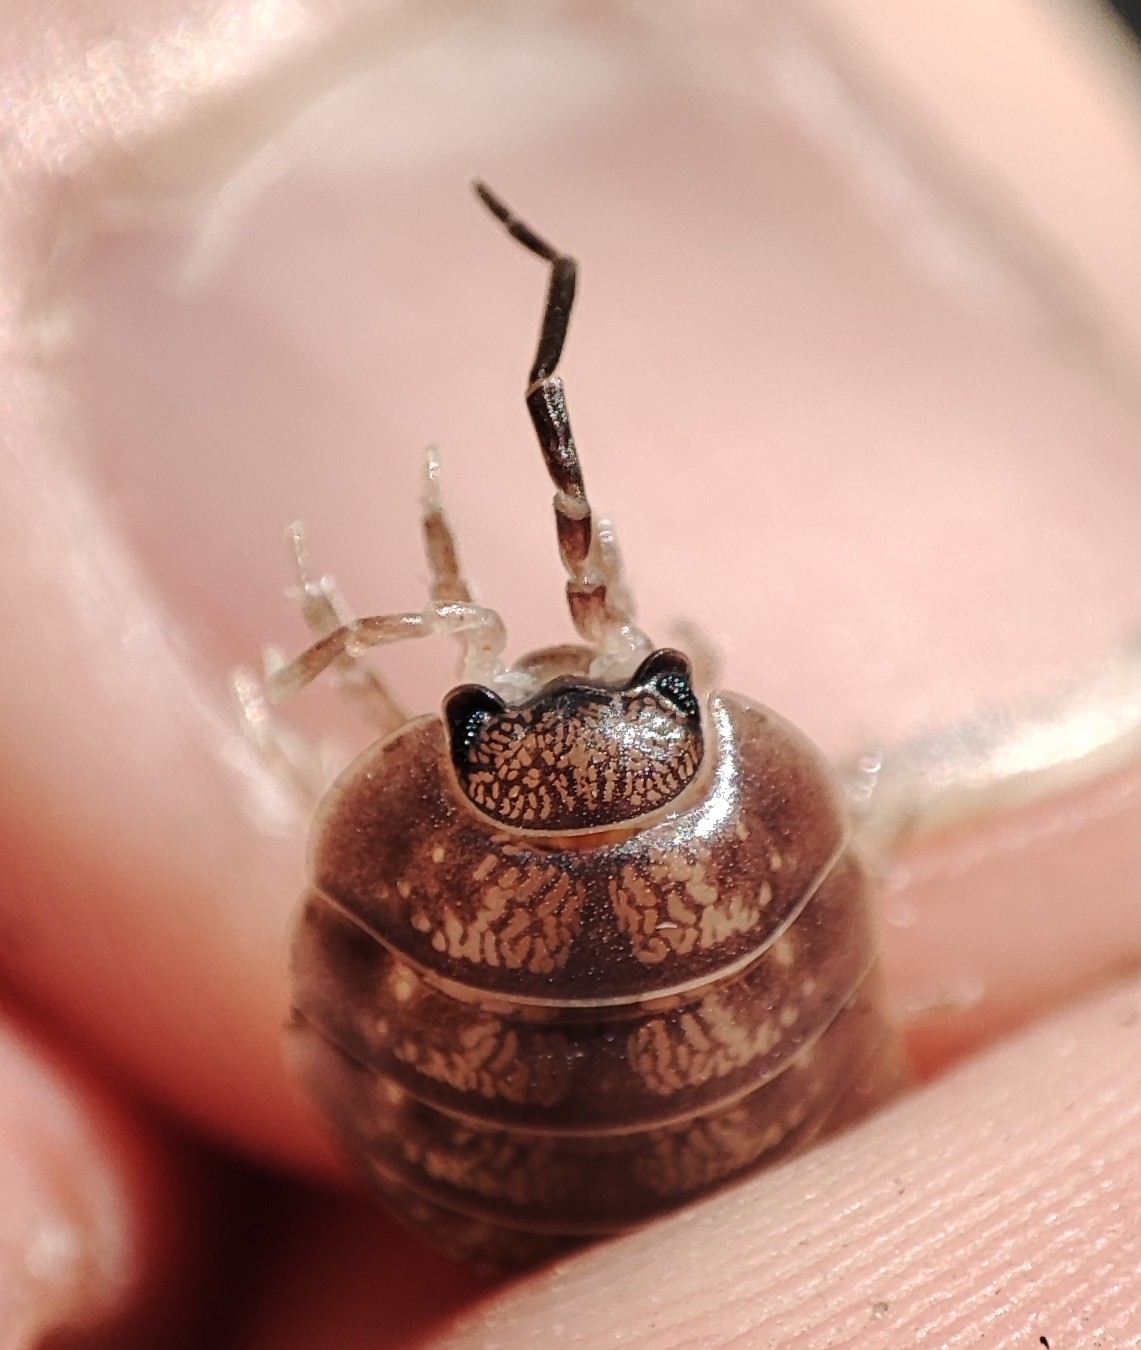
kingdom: Animalia
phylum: Arthropoda
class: Malacostraca
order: Isopoda
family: Porcellionidae
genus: Porcellio
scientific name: Porcellio laevis
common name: Swift woodlouse
